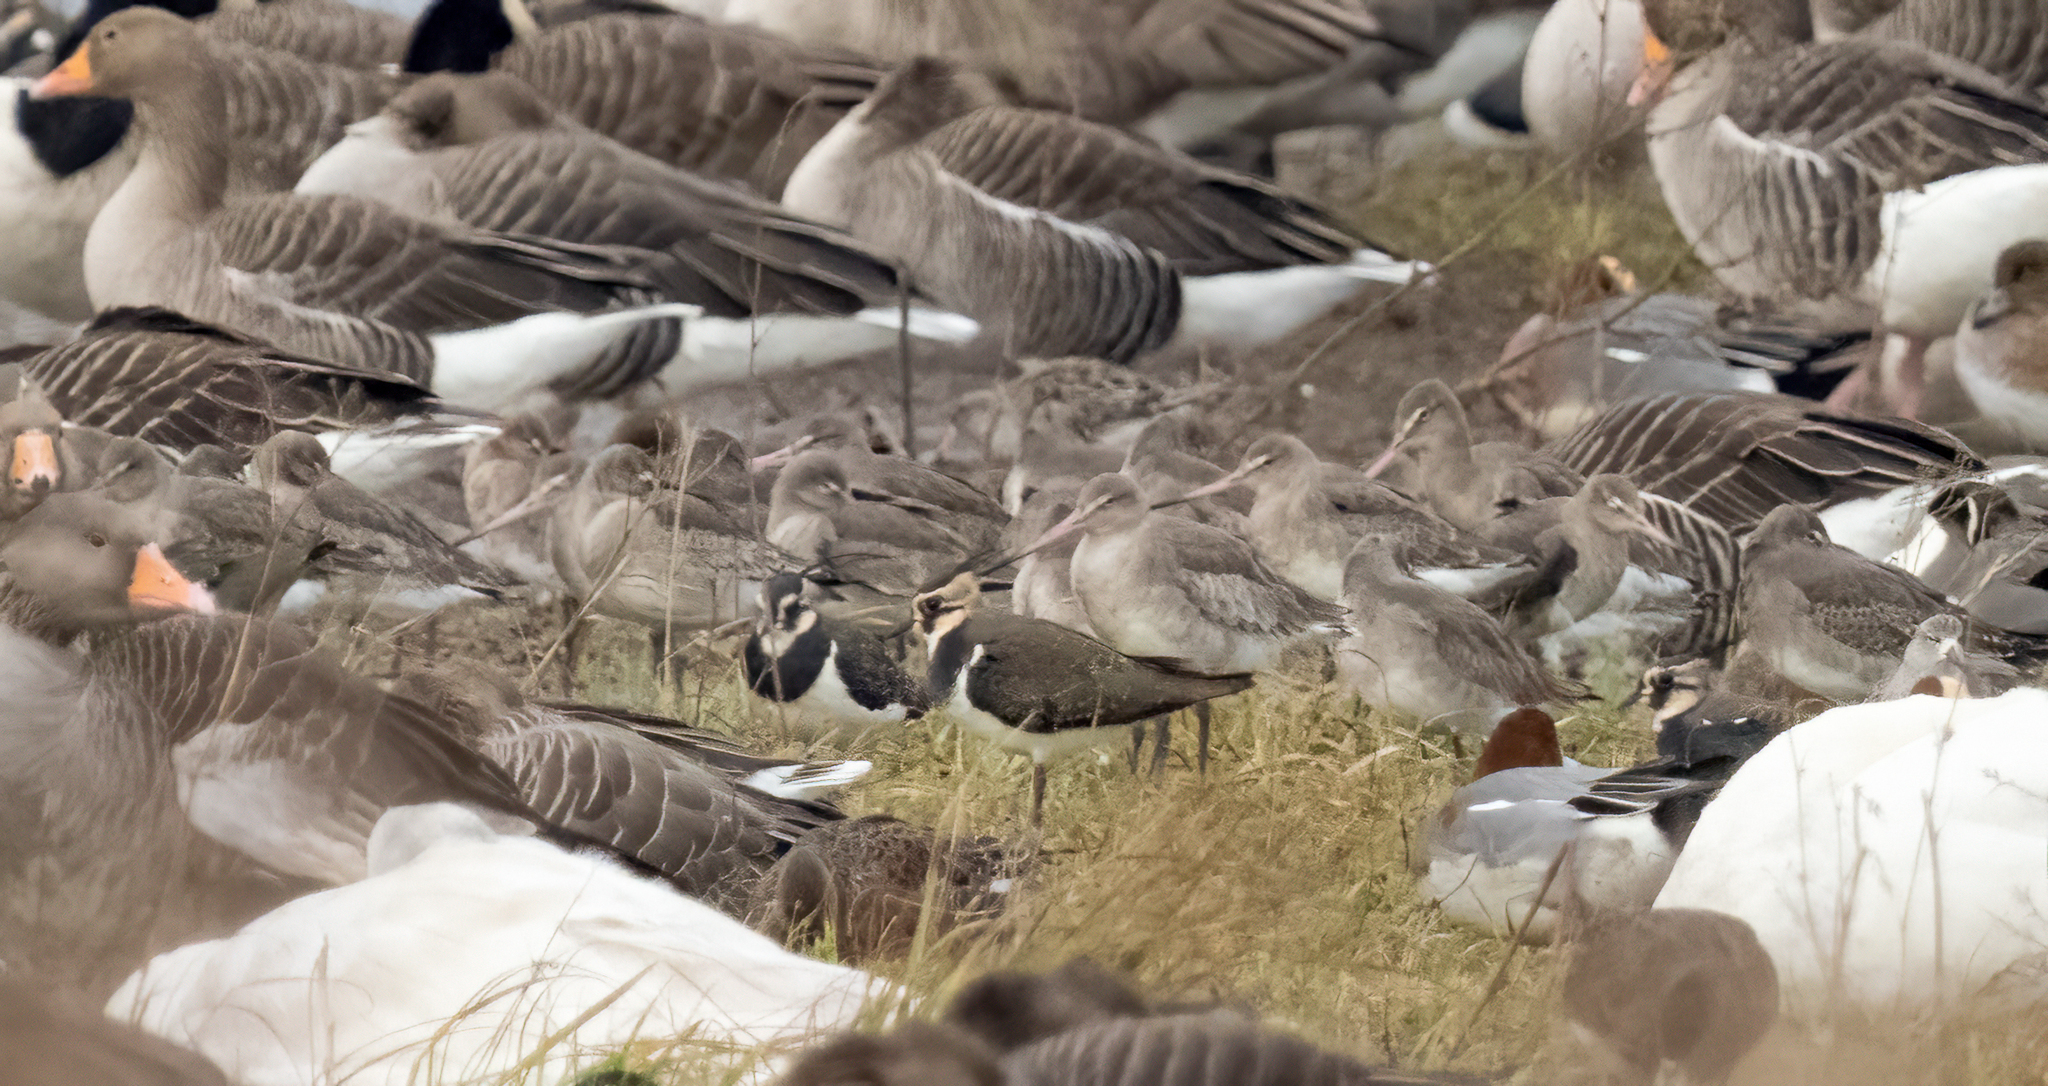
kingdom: Animalia
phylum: Chordata
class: Aves
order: Charadriiformes
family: Scolopacidae
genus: Limosa
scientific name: Limosa limosa
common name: Black-tailed godwit
